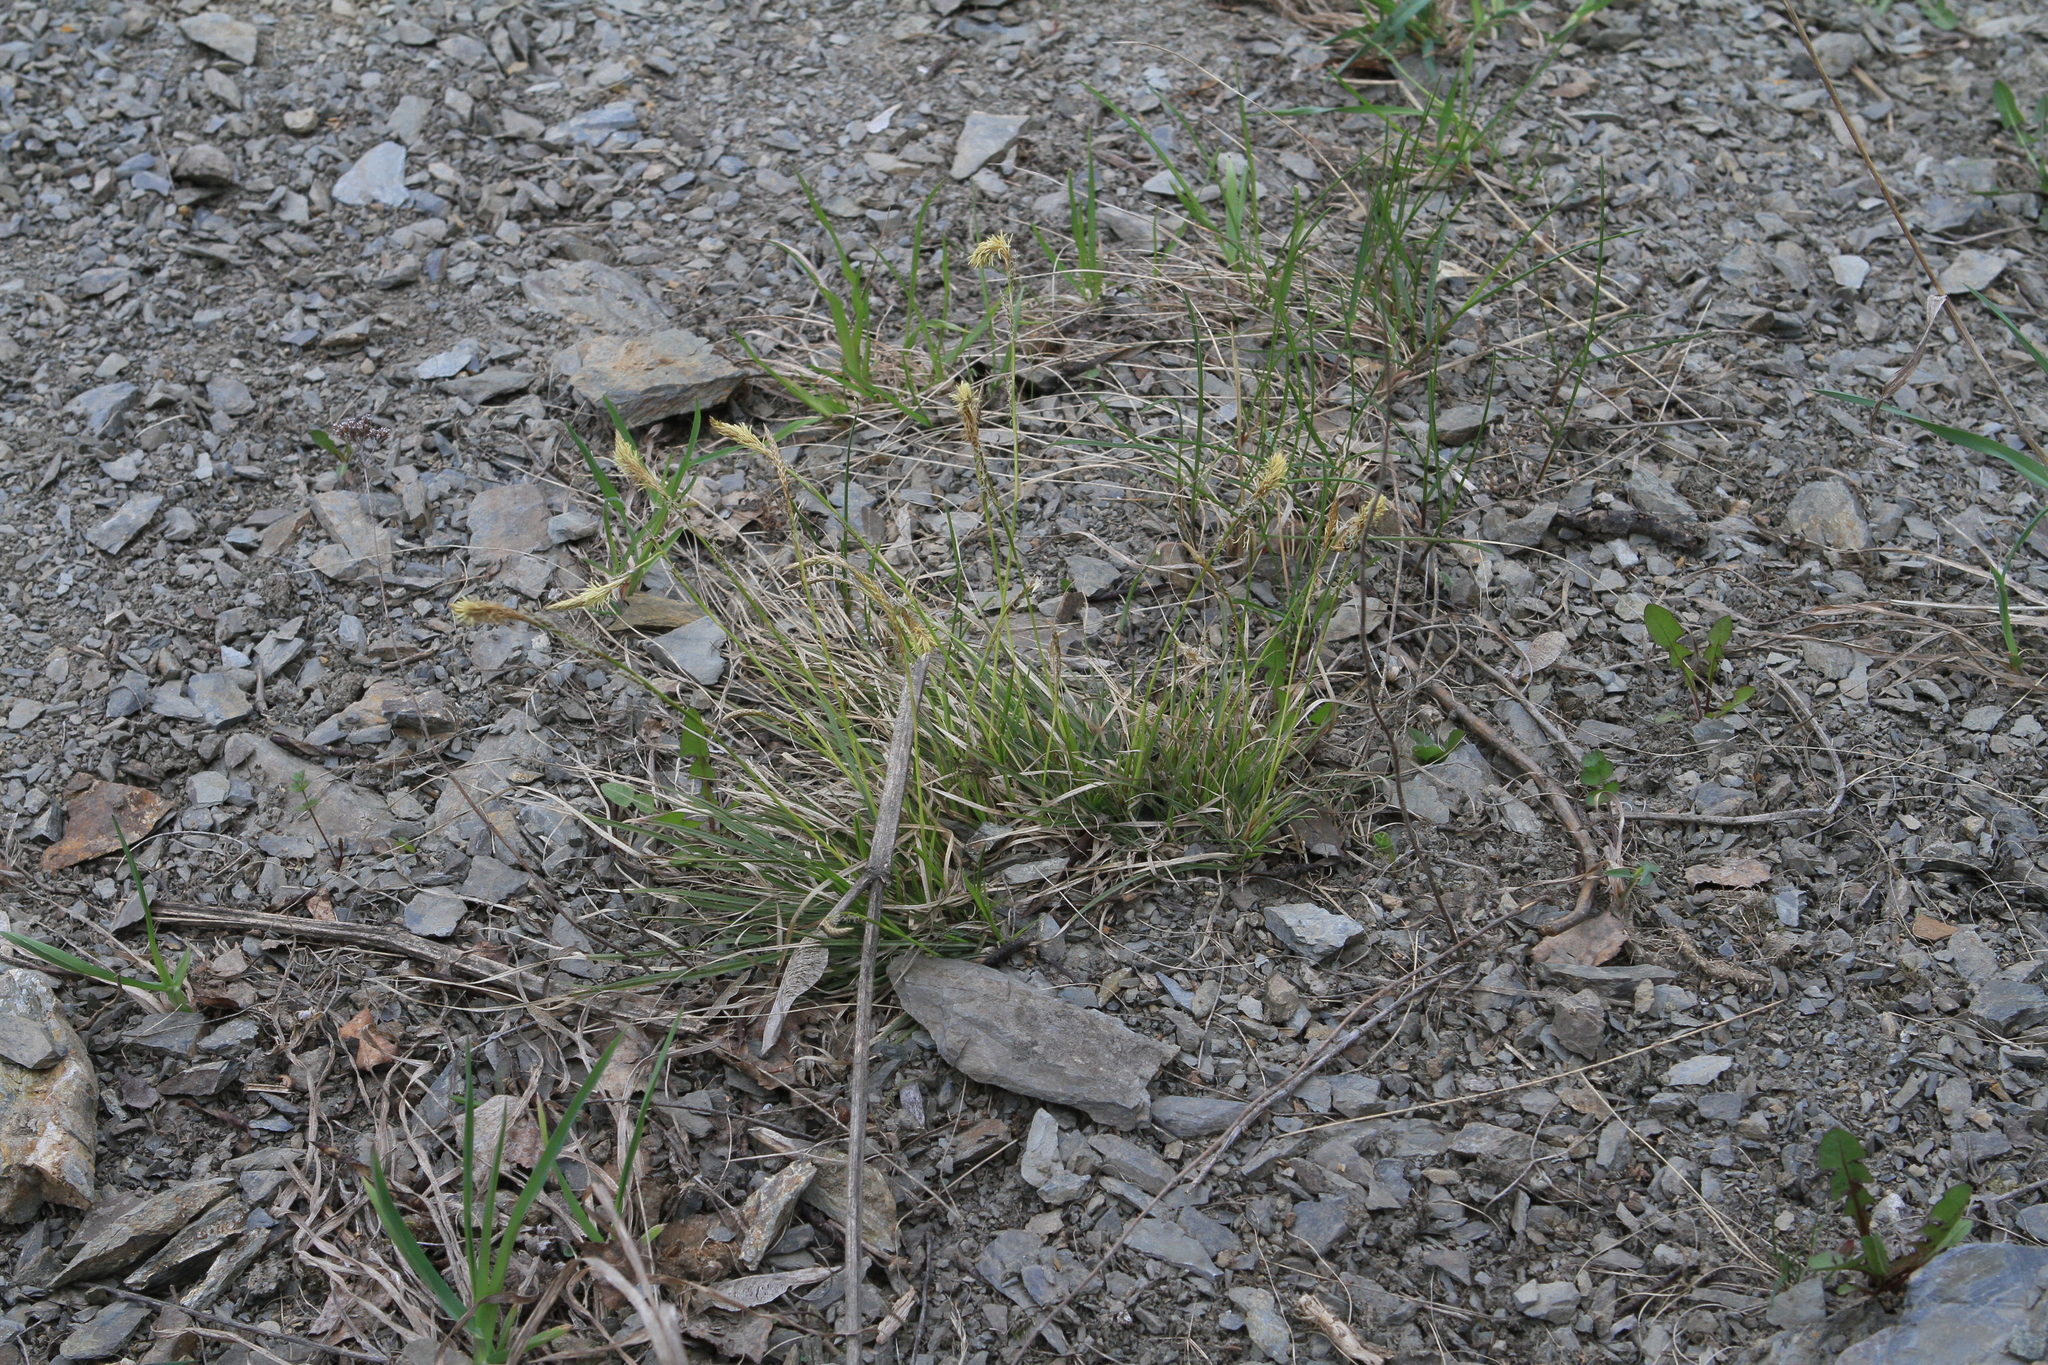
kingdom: Plantae
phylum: Tracheophyta
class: Liliopsida
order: Poales
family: Cyperaceae
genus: Carex
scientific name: Carex pediformis
